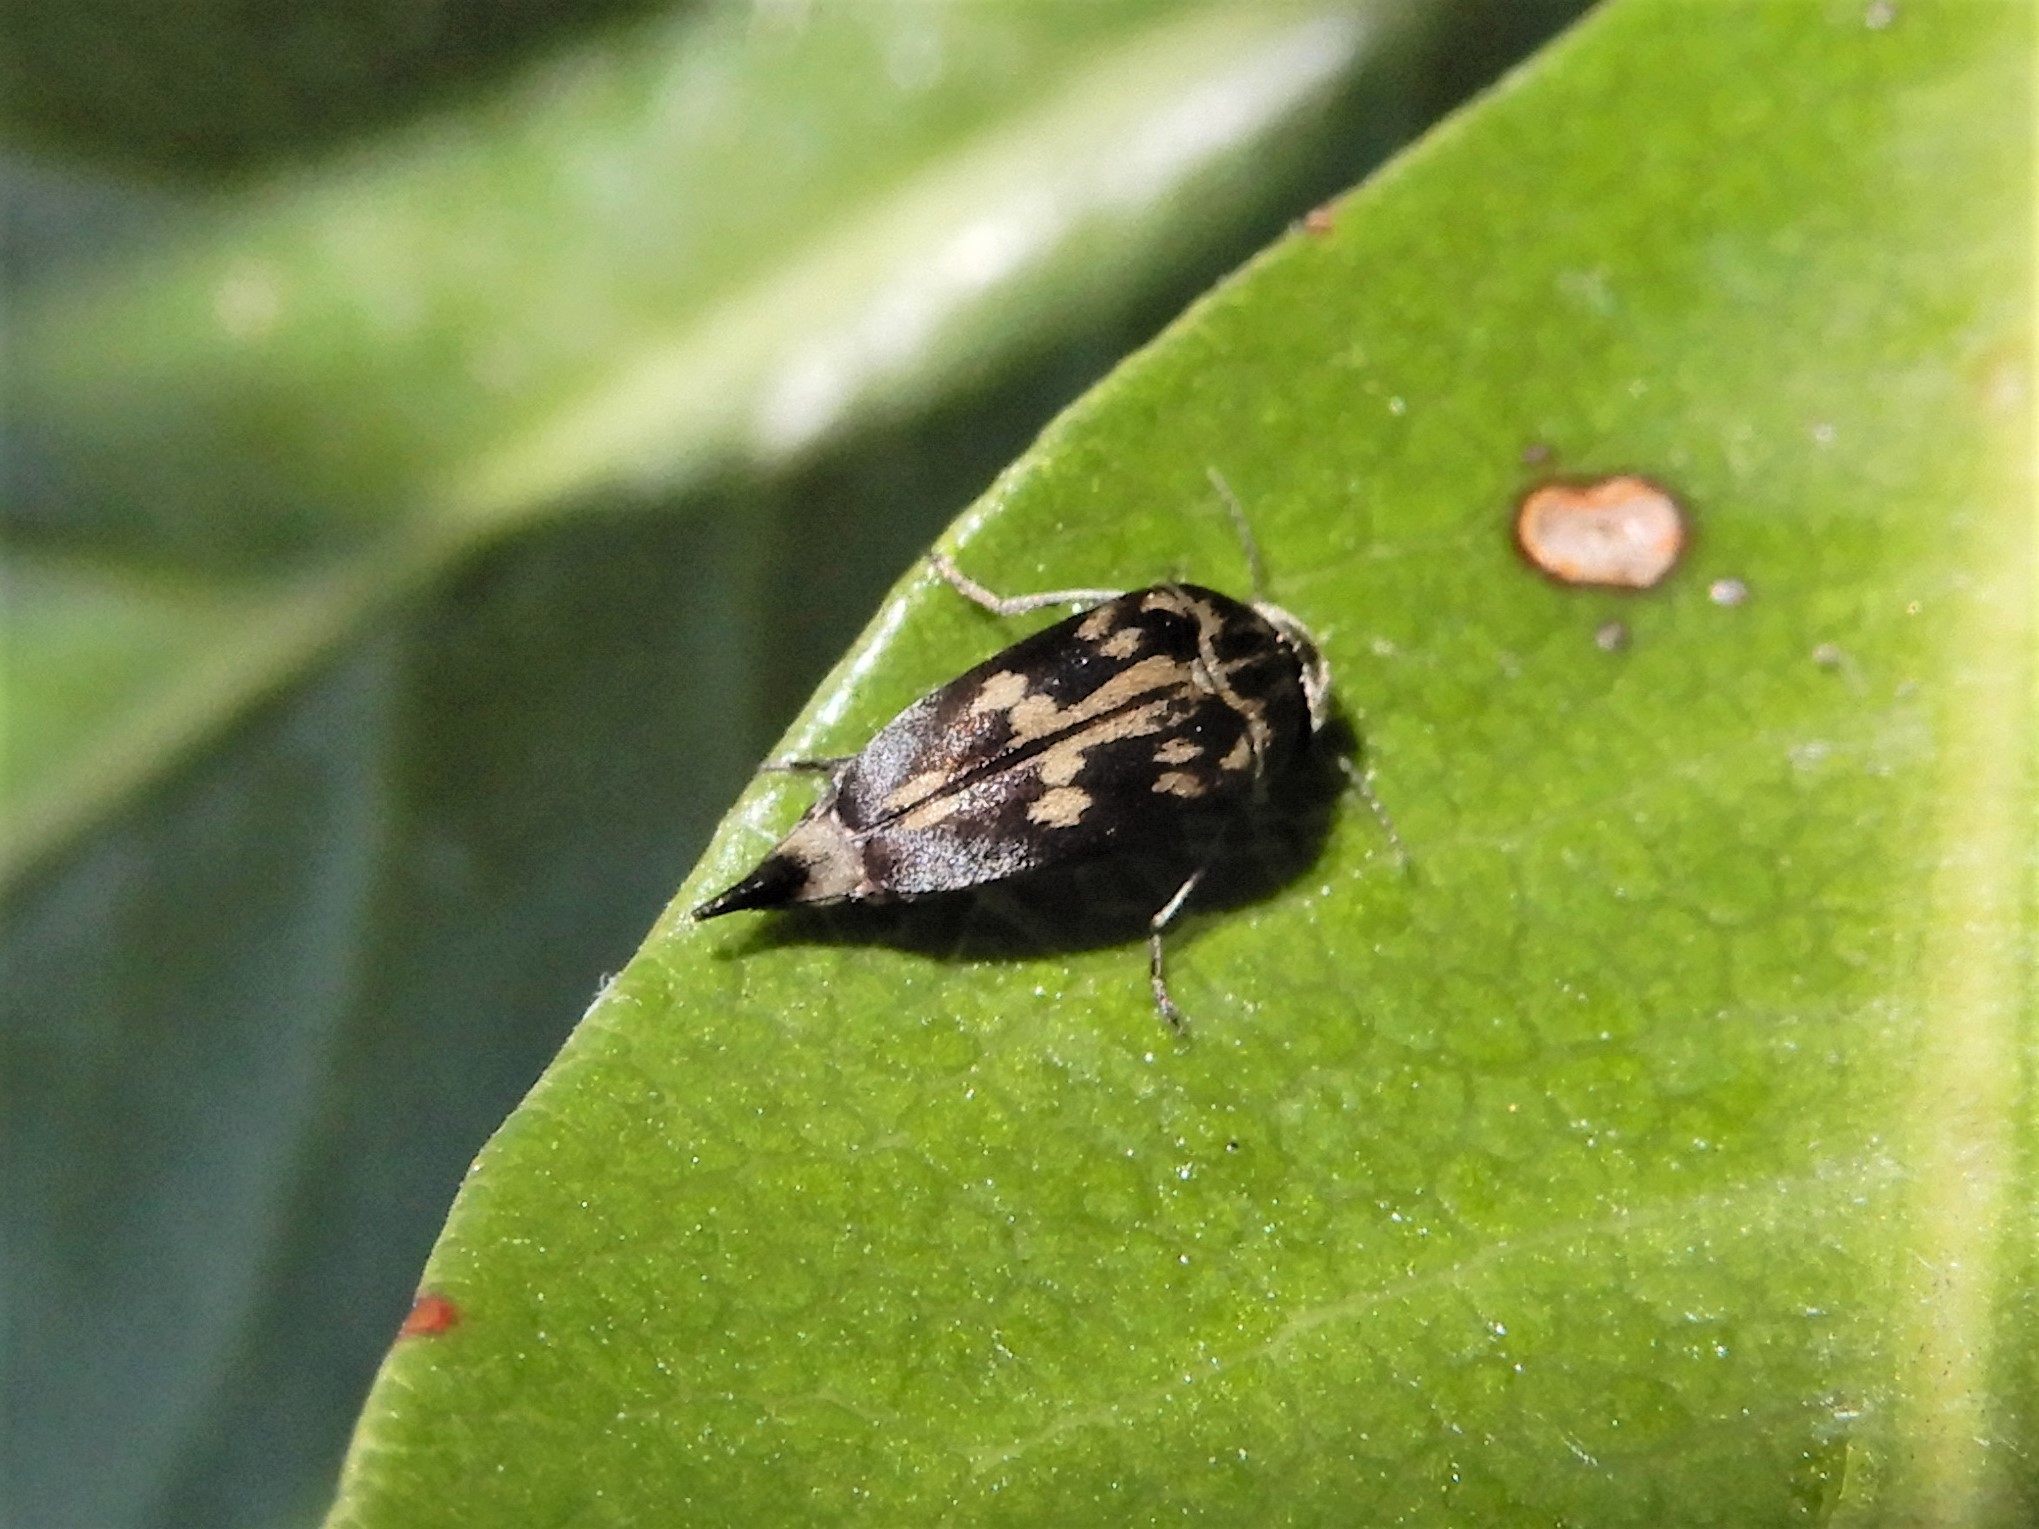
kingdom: Animalia
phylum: Arthropoda
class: Insecta
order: Coleoptera
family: Mordellidae
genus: Zeamordella
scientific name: Zeamordella monacha
